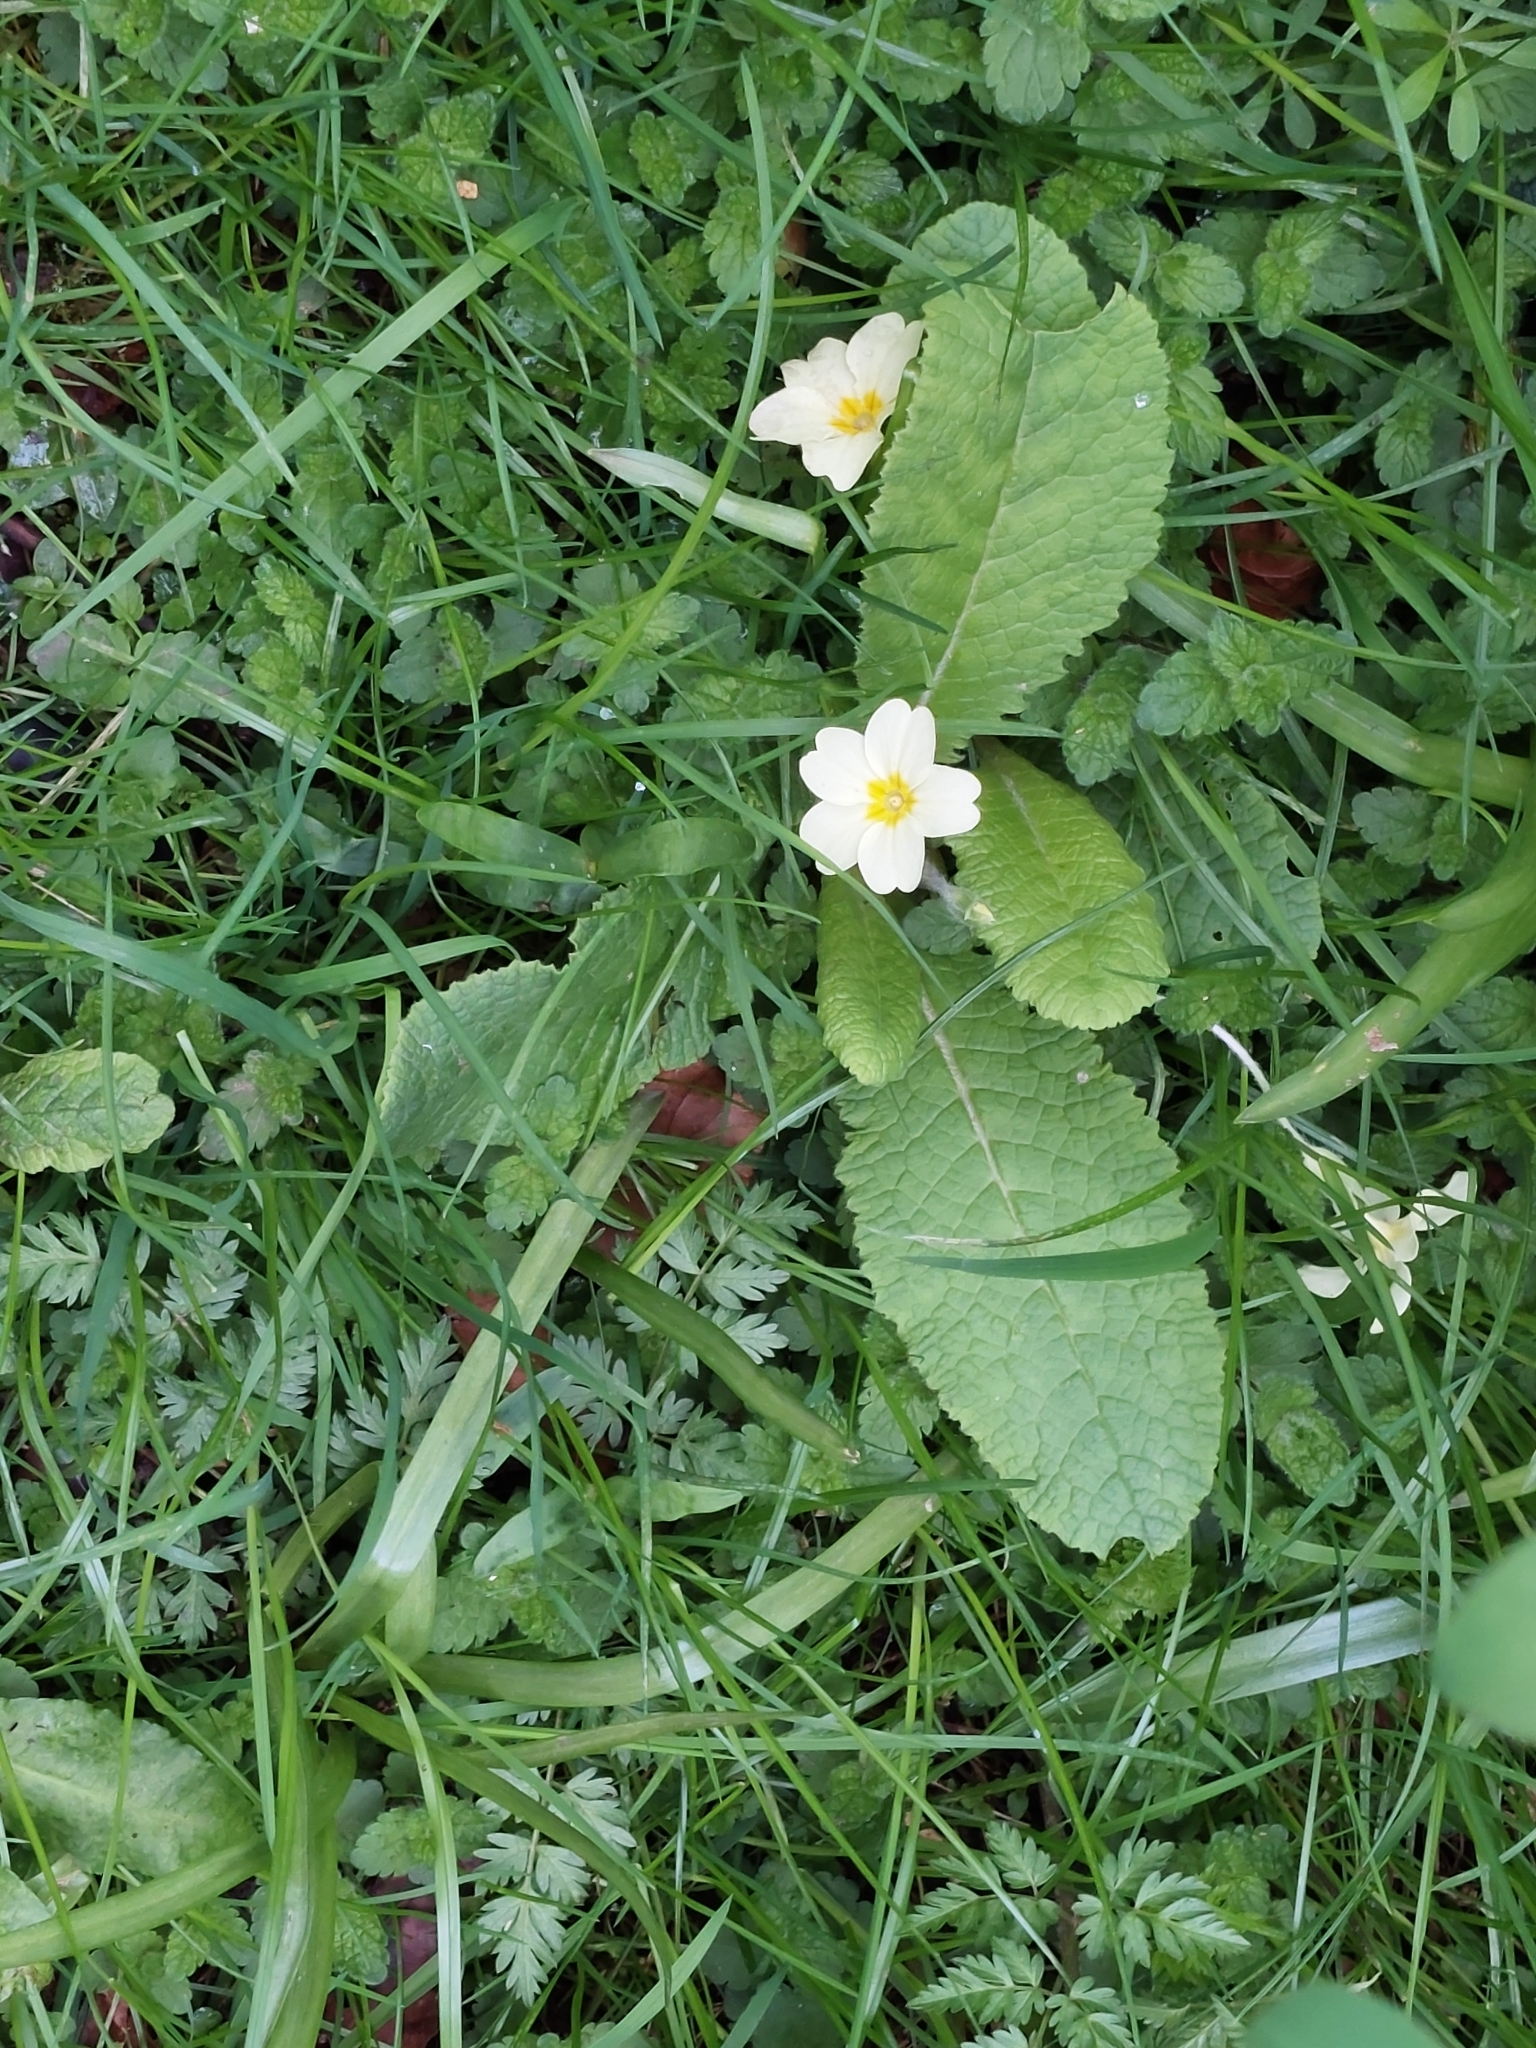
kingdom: Plantae
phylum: Tracheophyta
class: Magnoliopsida
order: Ericales
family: Primulaceae
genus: Primula
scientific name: Primula vulgaris
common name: Primrose
